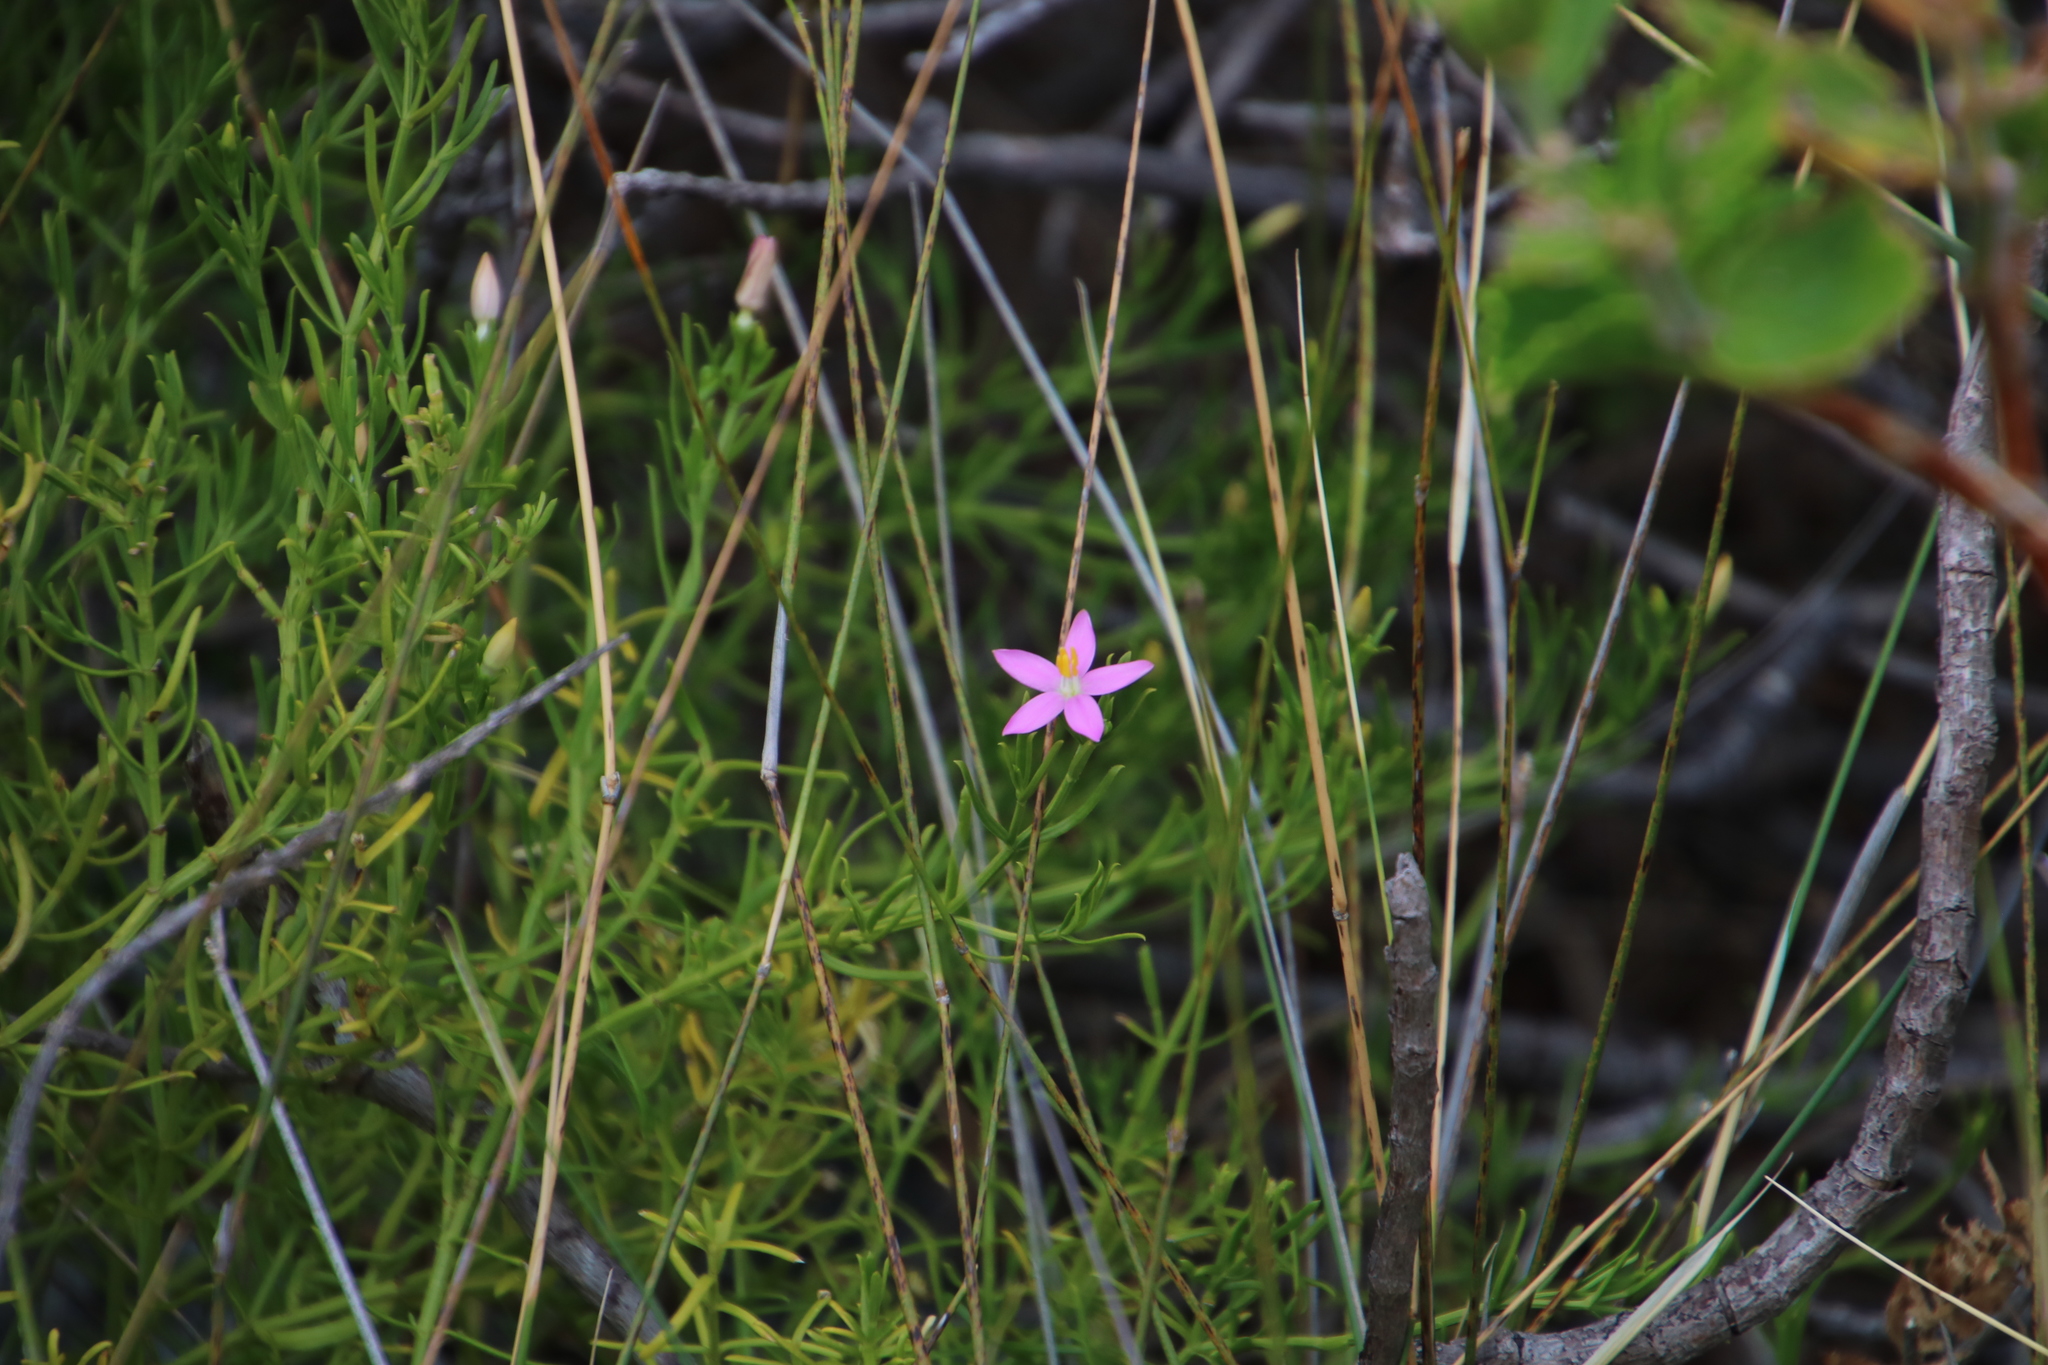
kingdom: Plantae
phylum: Tracheophyta
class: Magnoliopsida
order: Gentianales
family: Gentianaceae
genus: Chironia
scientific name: Chironia baccifera
